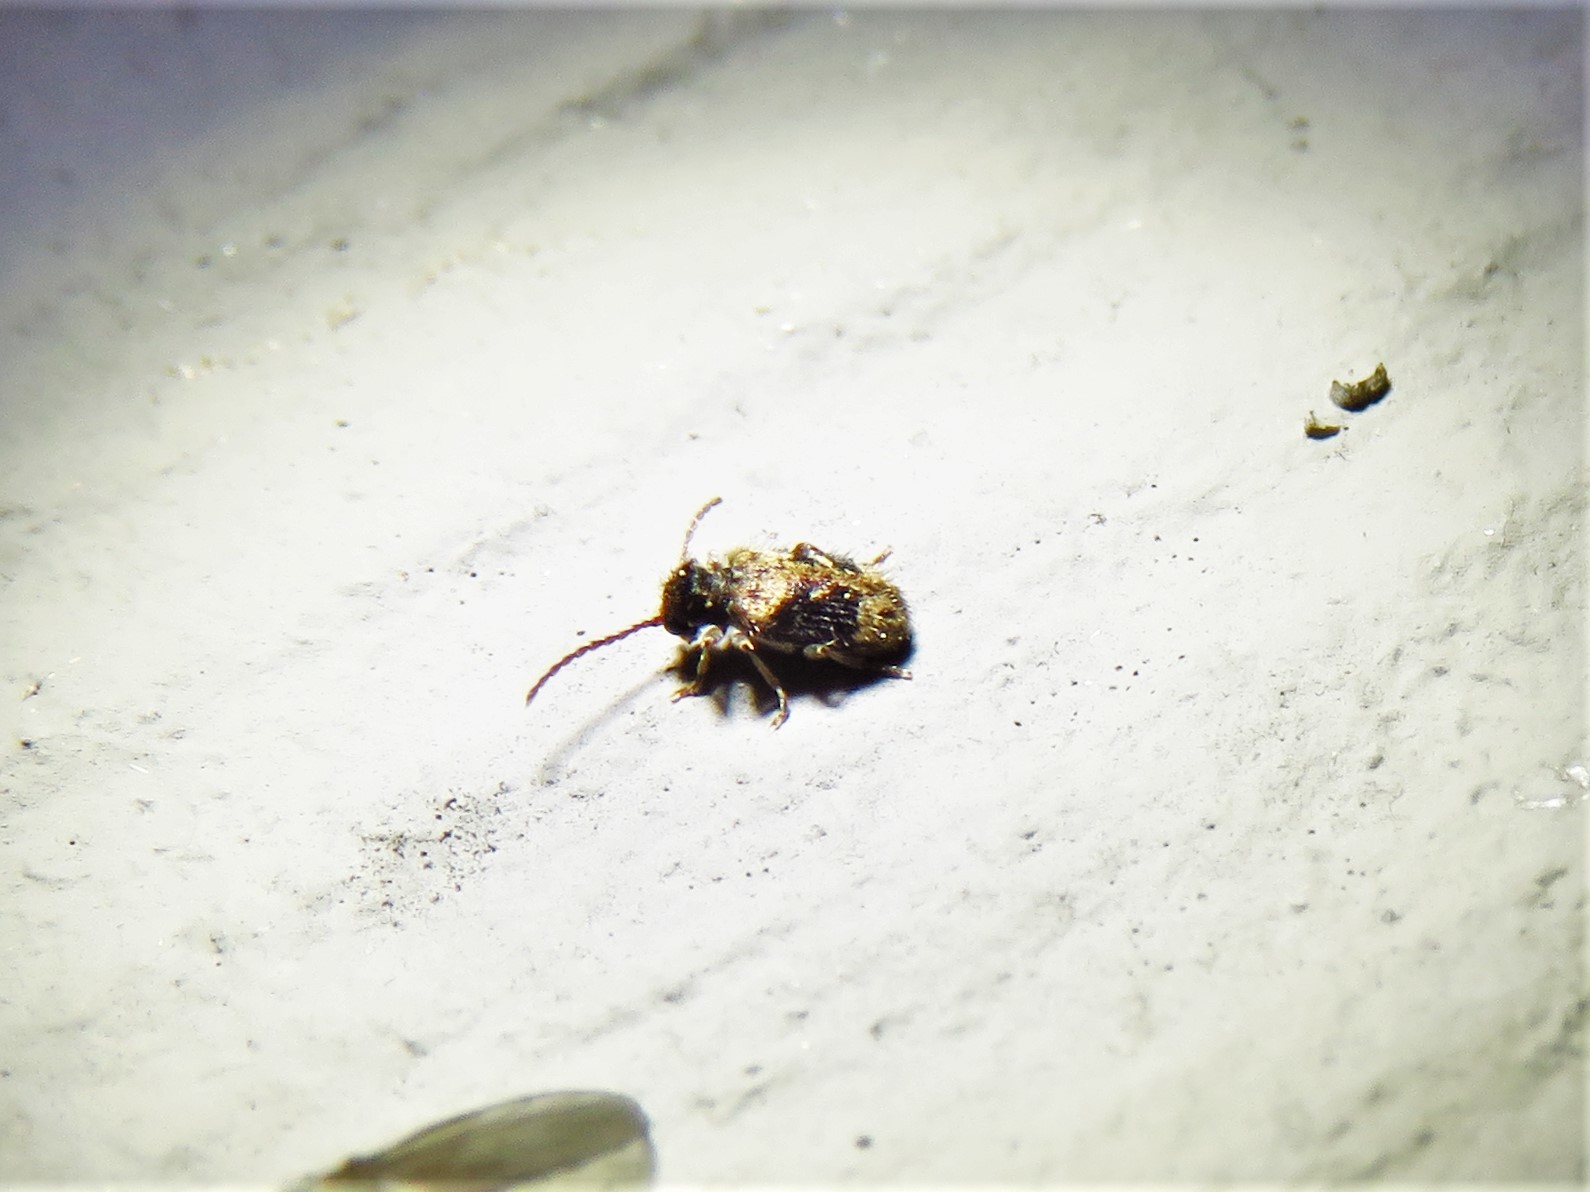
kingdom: Animalia
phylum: Arthropoda
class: Insecta
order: Coleoptera
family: Ptinidae
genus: Ptinus
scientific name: Ptinus texanus
